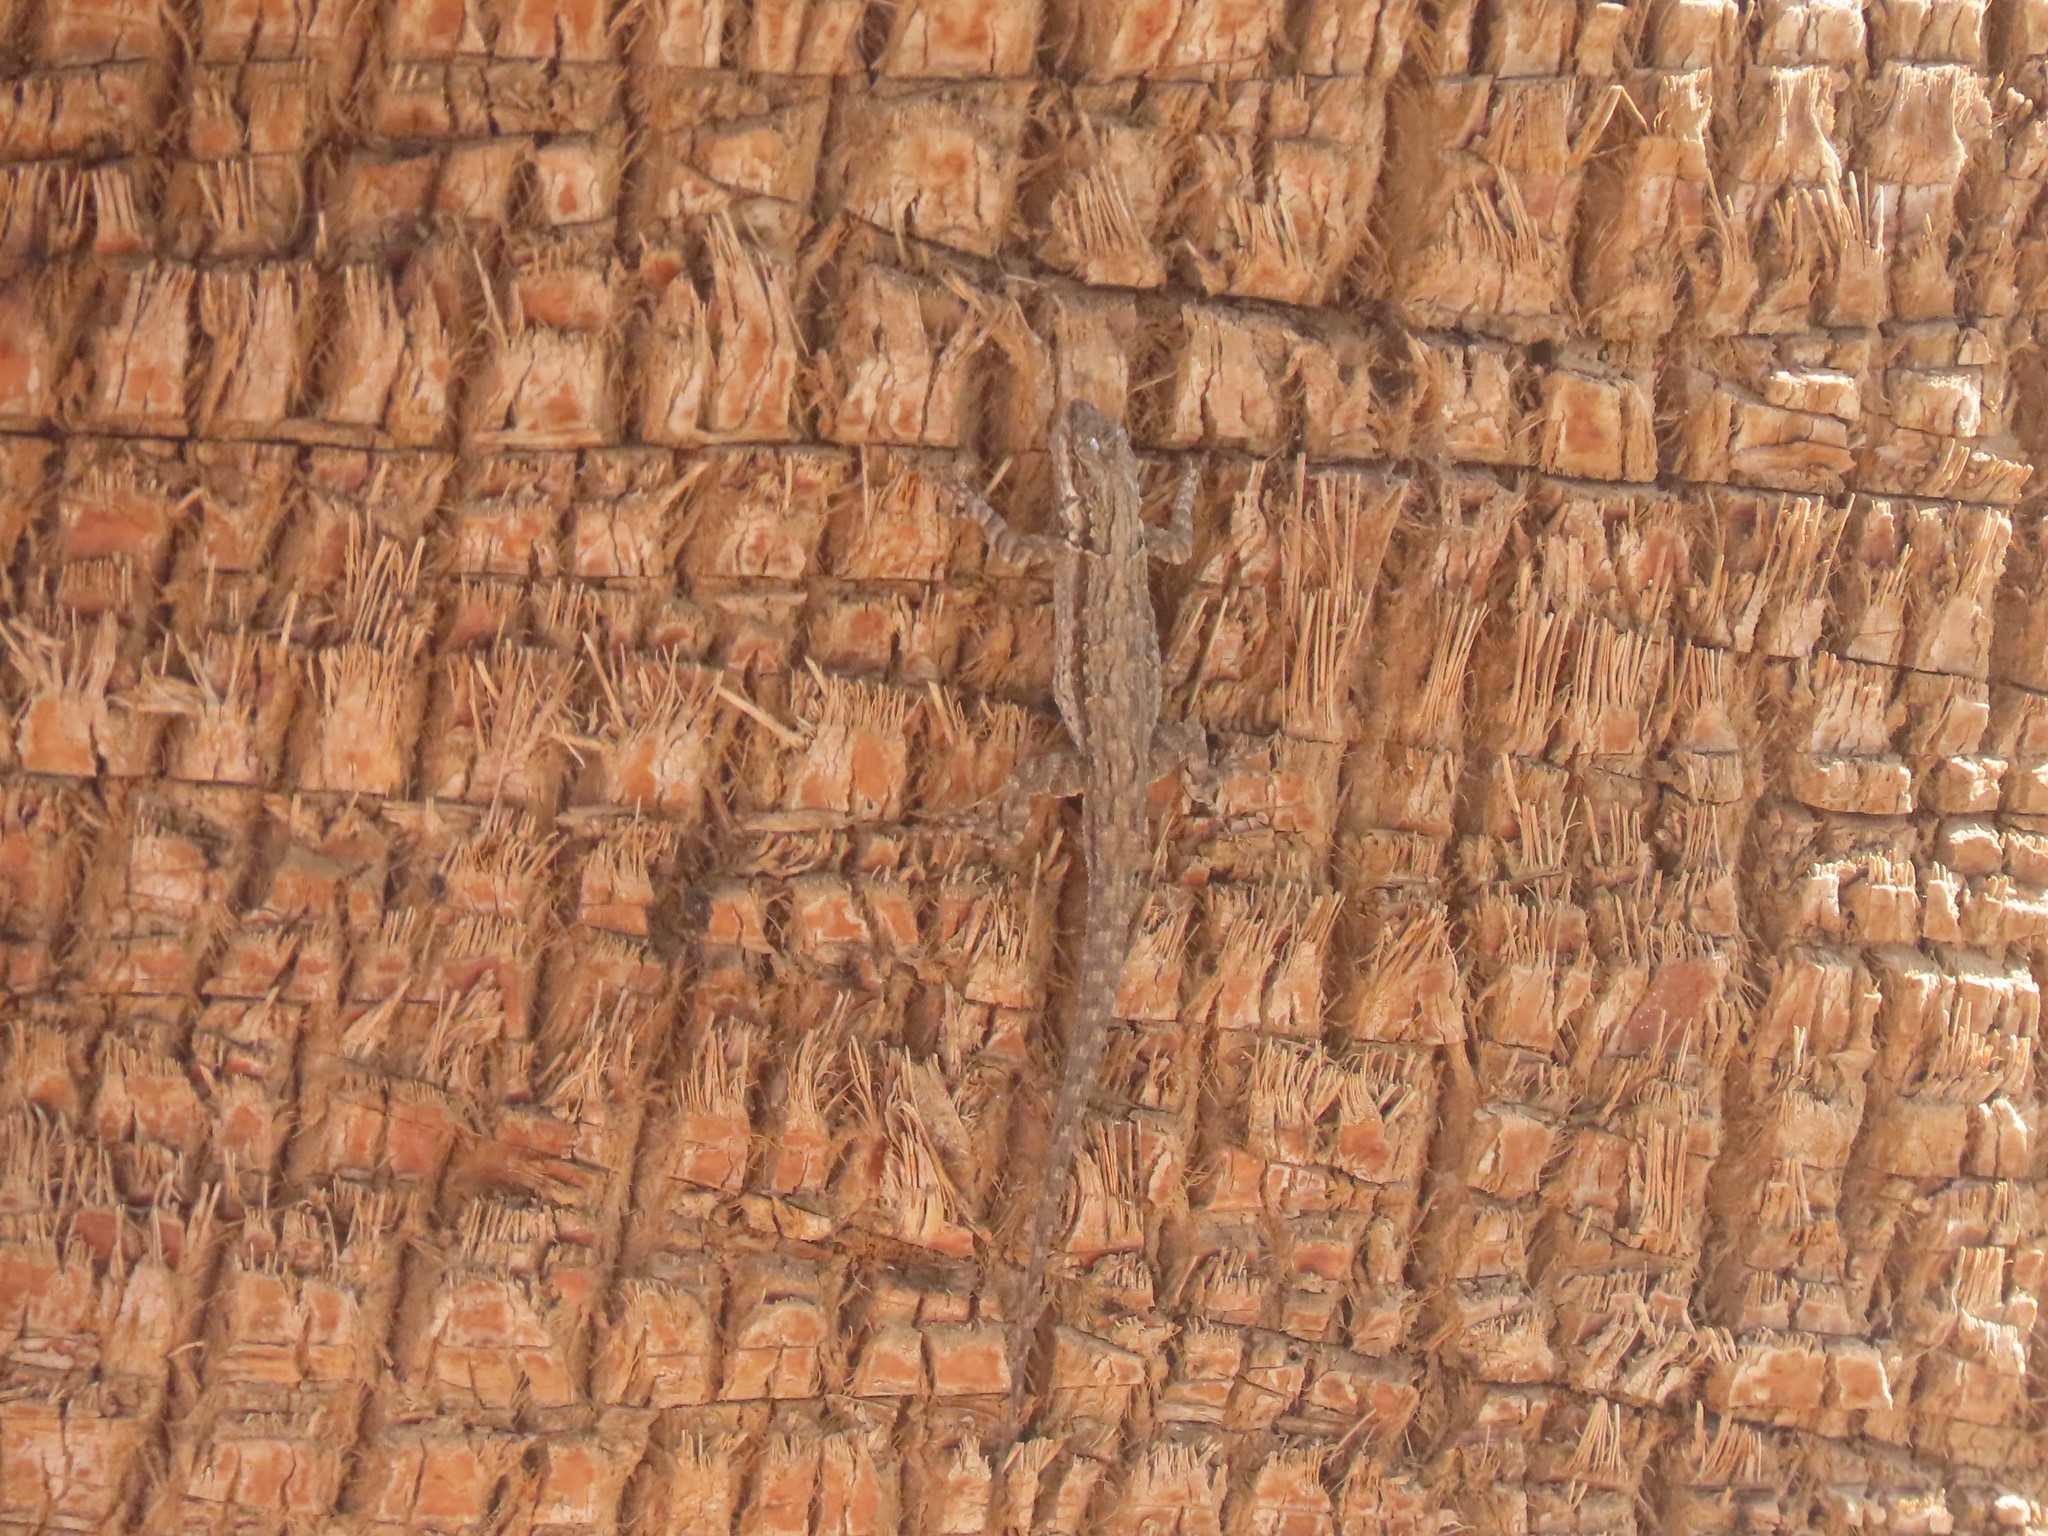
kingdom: Animalia
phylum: Chordata
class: Squamata
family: Phrynosomatidae
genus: Urosaurus
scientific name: Urosaurus ornatus
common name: Ornate tree lizard
